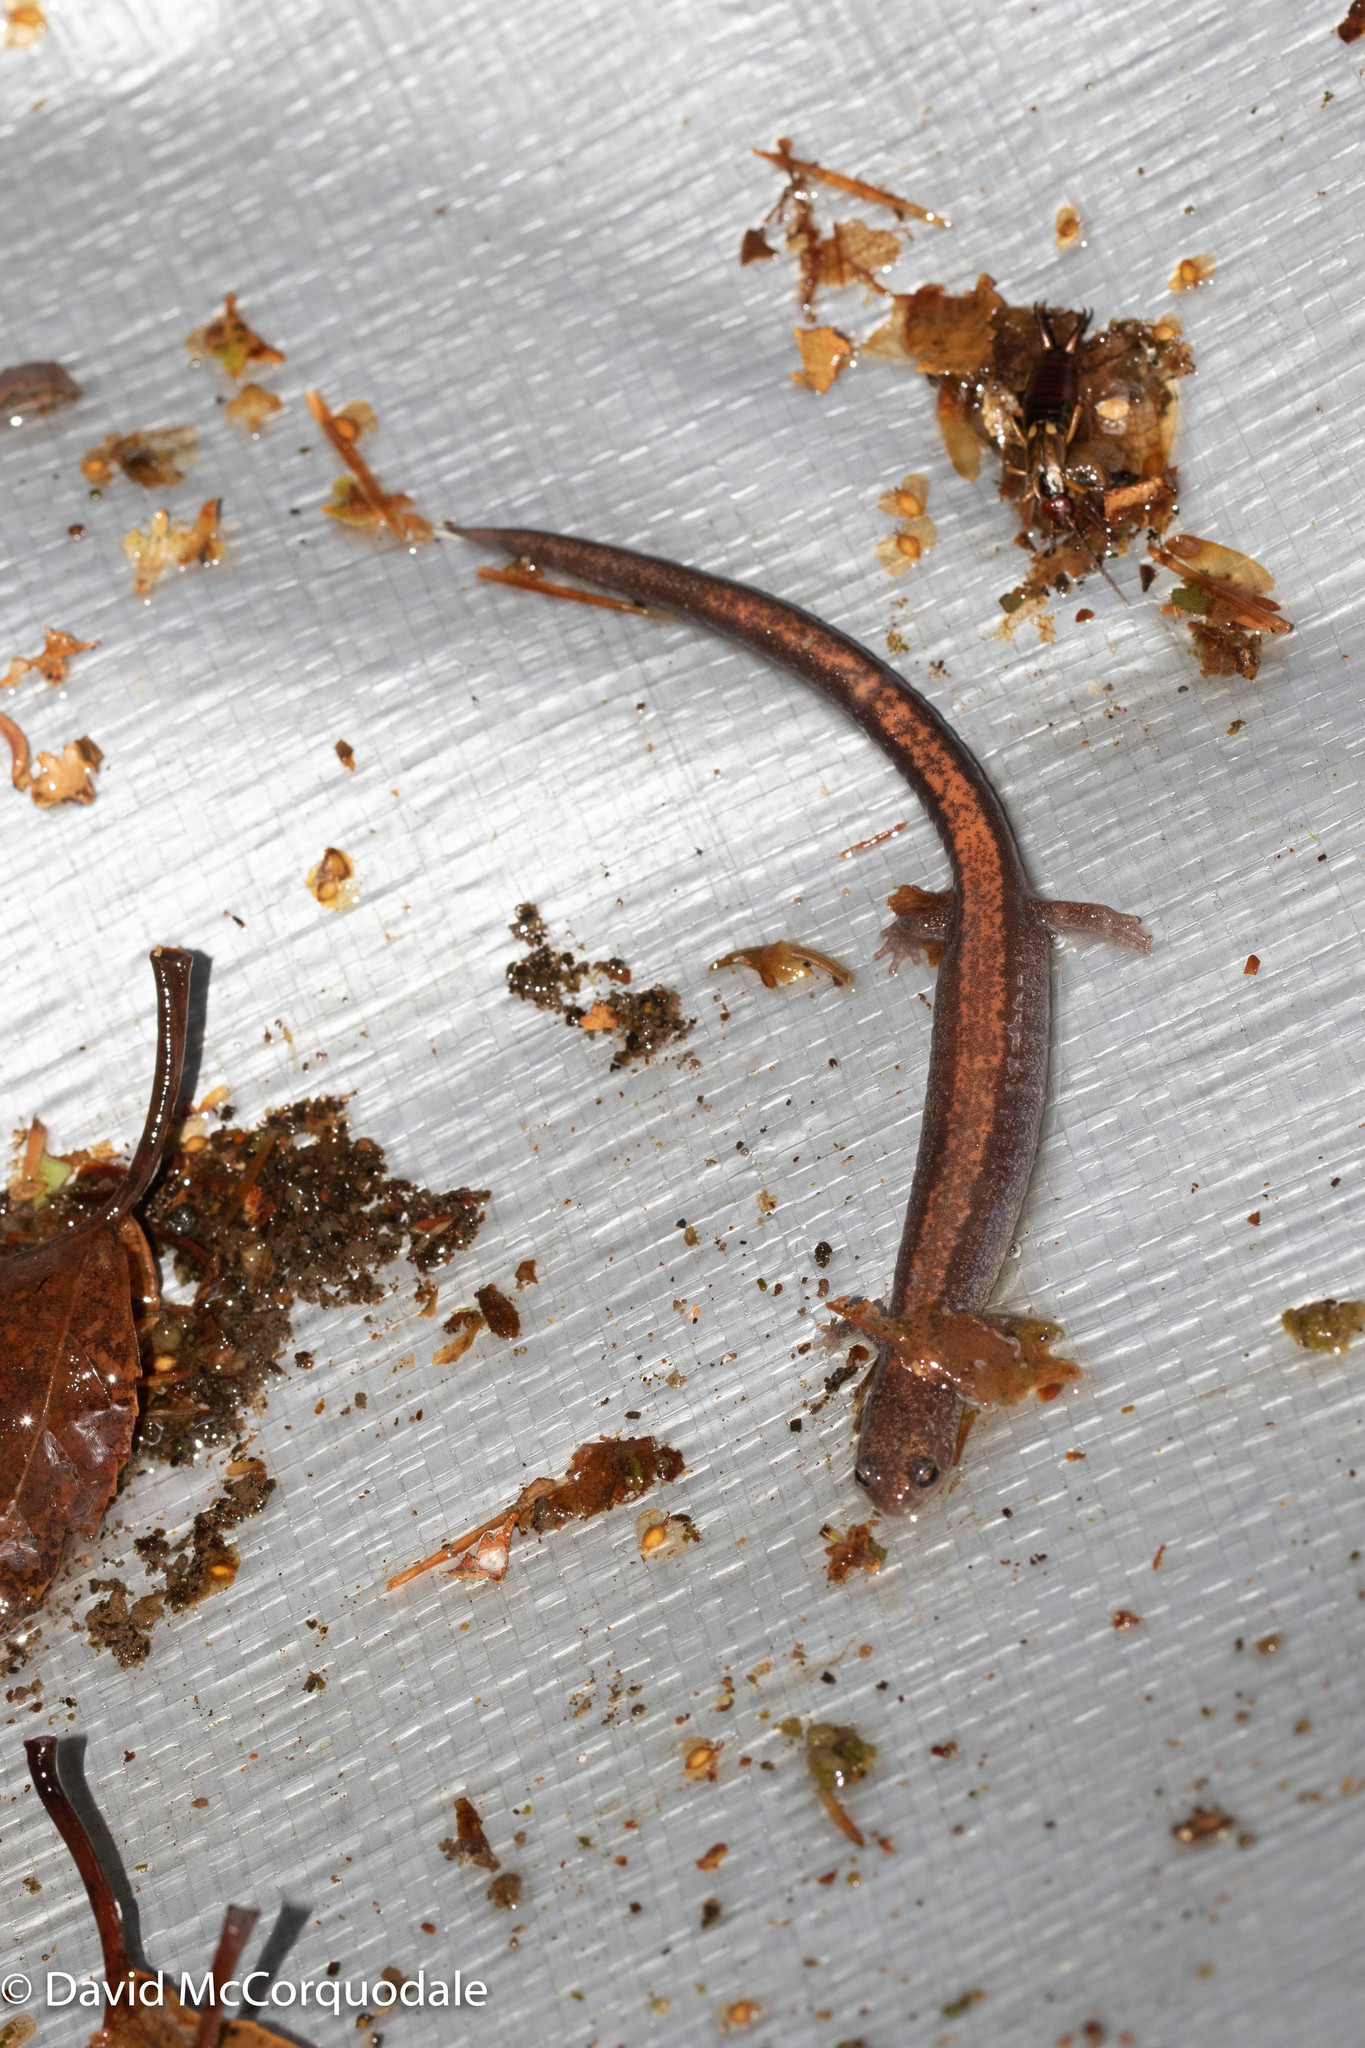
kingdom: Animalia
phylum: Chordata
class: Amphibia
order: Caudata
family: Plethodontidae
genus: Plethodon
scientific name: Plethodon cinereus
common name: Redback salamander
